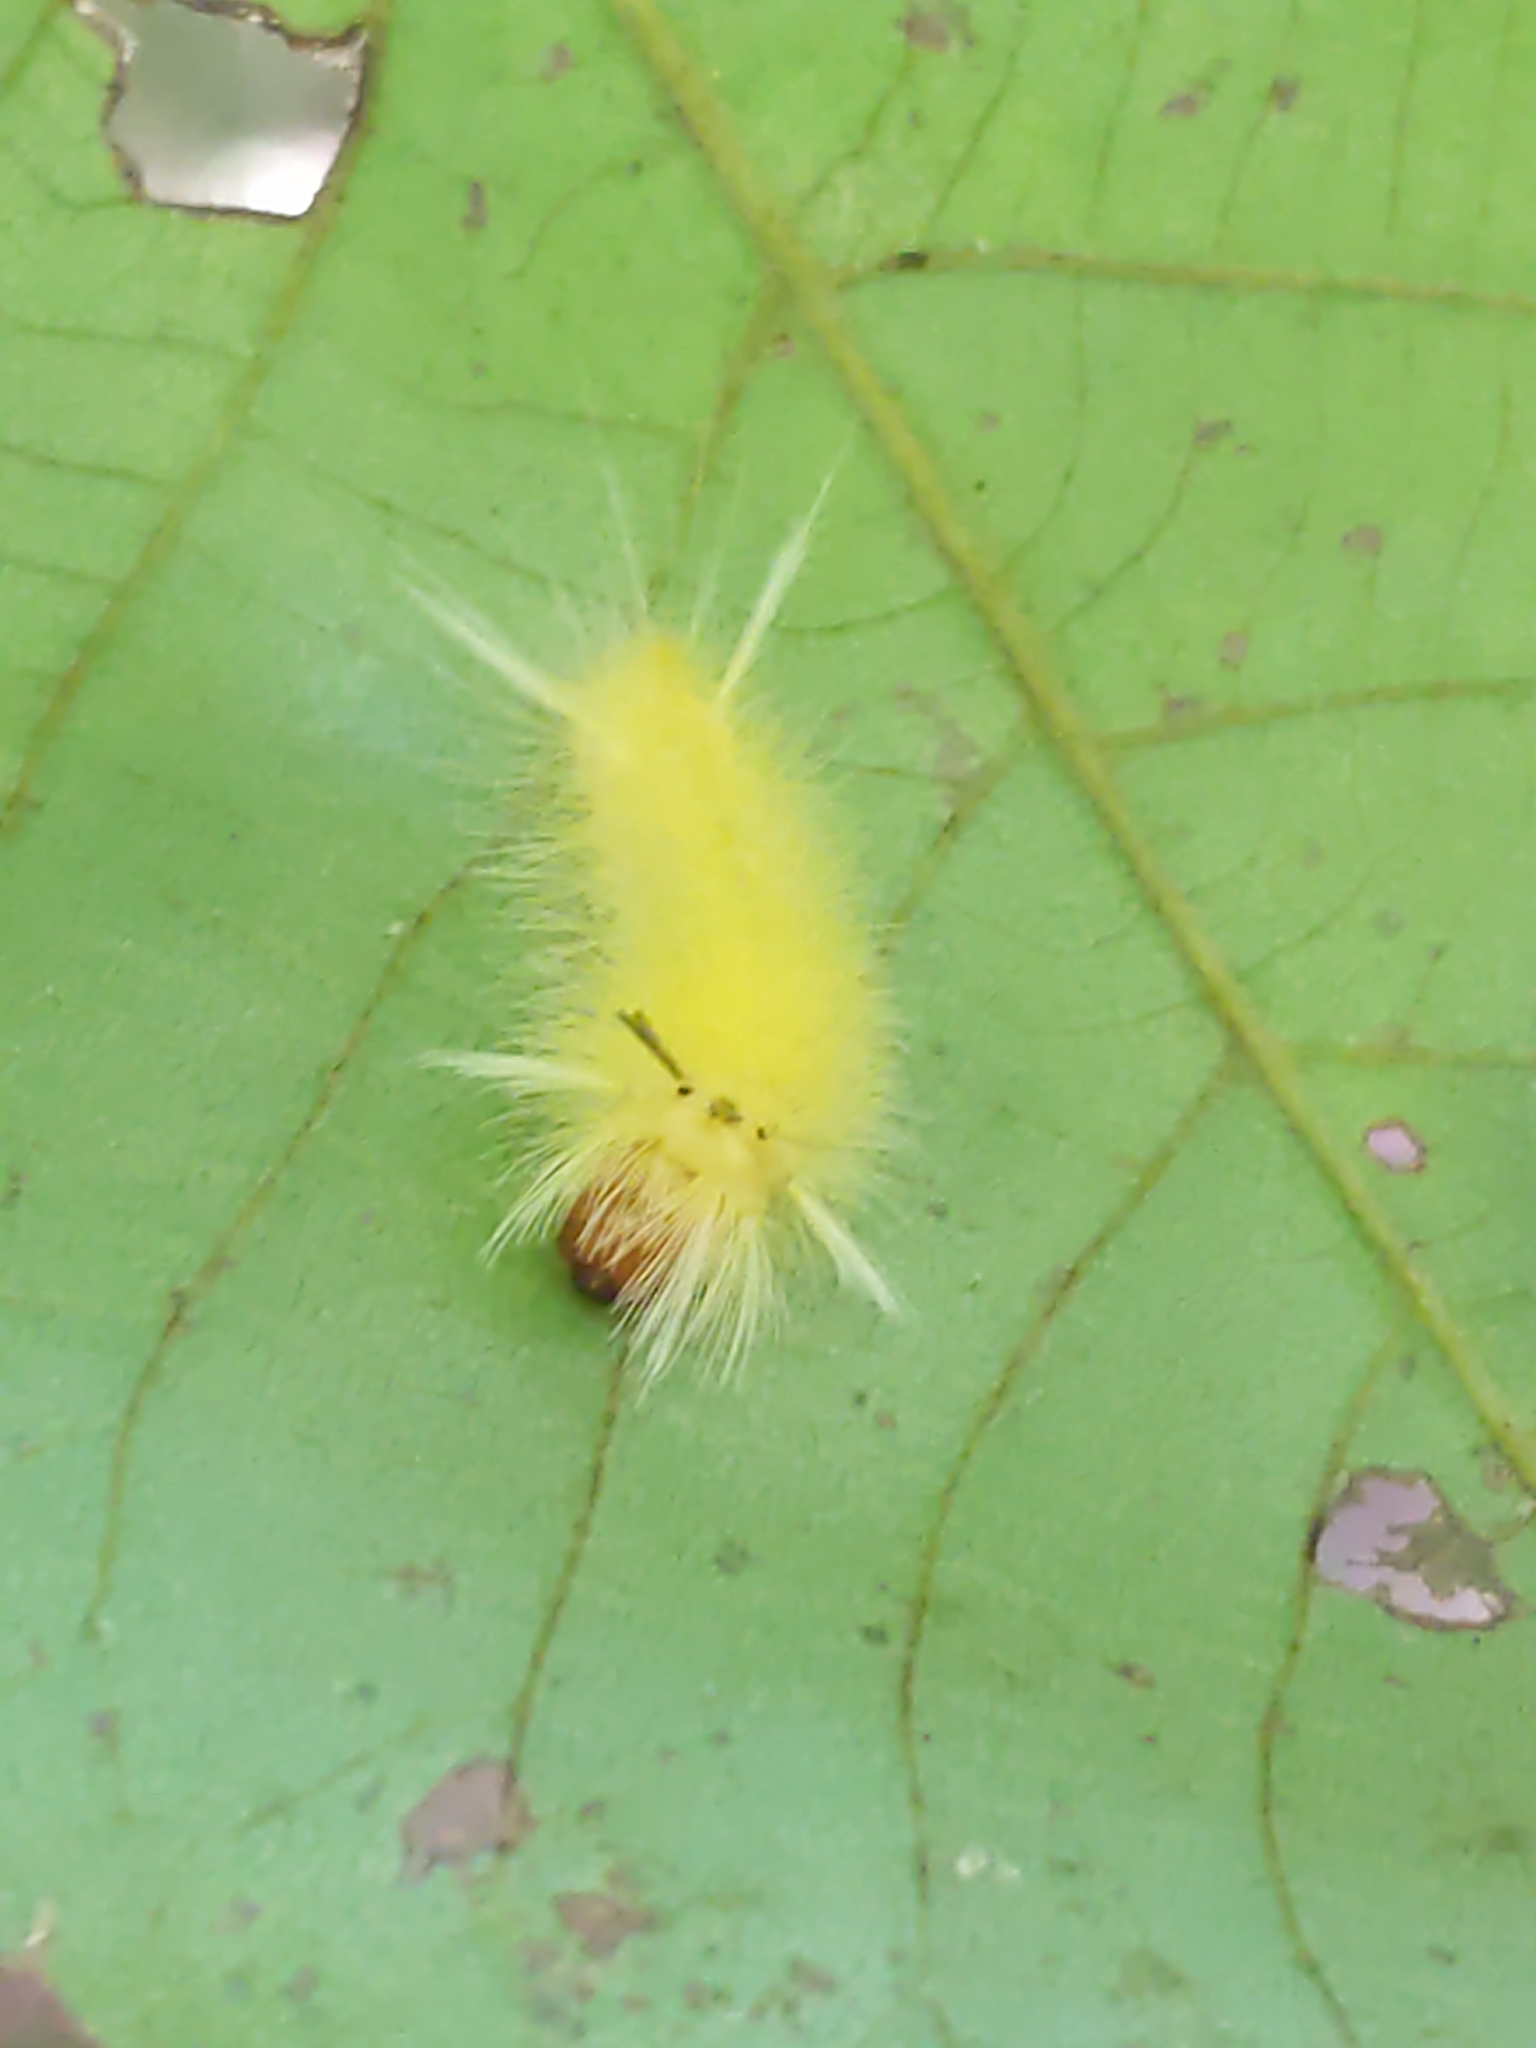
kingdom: Animalia
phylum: Arthropoda
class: Insecta
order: Lepidoptera
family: Erebidae
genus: Halysidota
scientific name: Halysidota tessellaris
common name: Banded tussock moth
